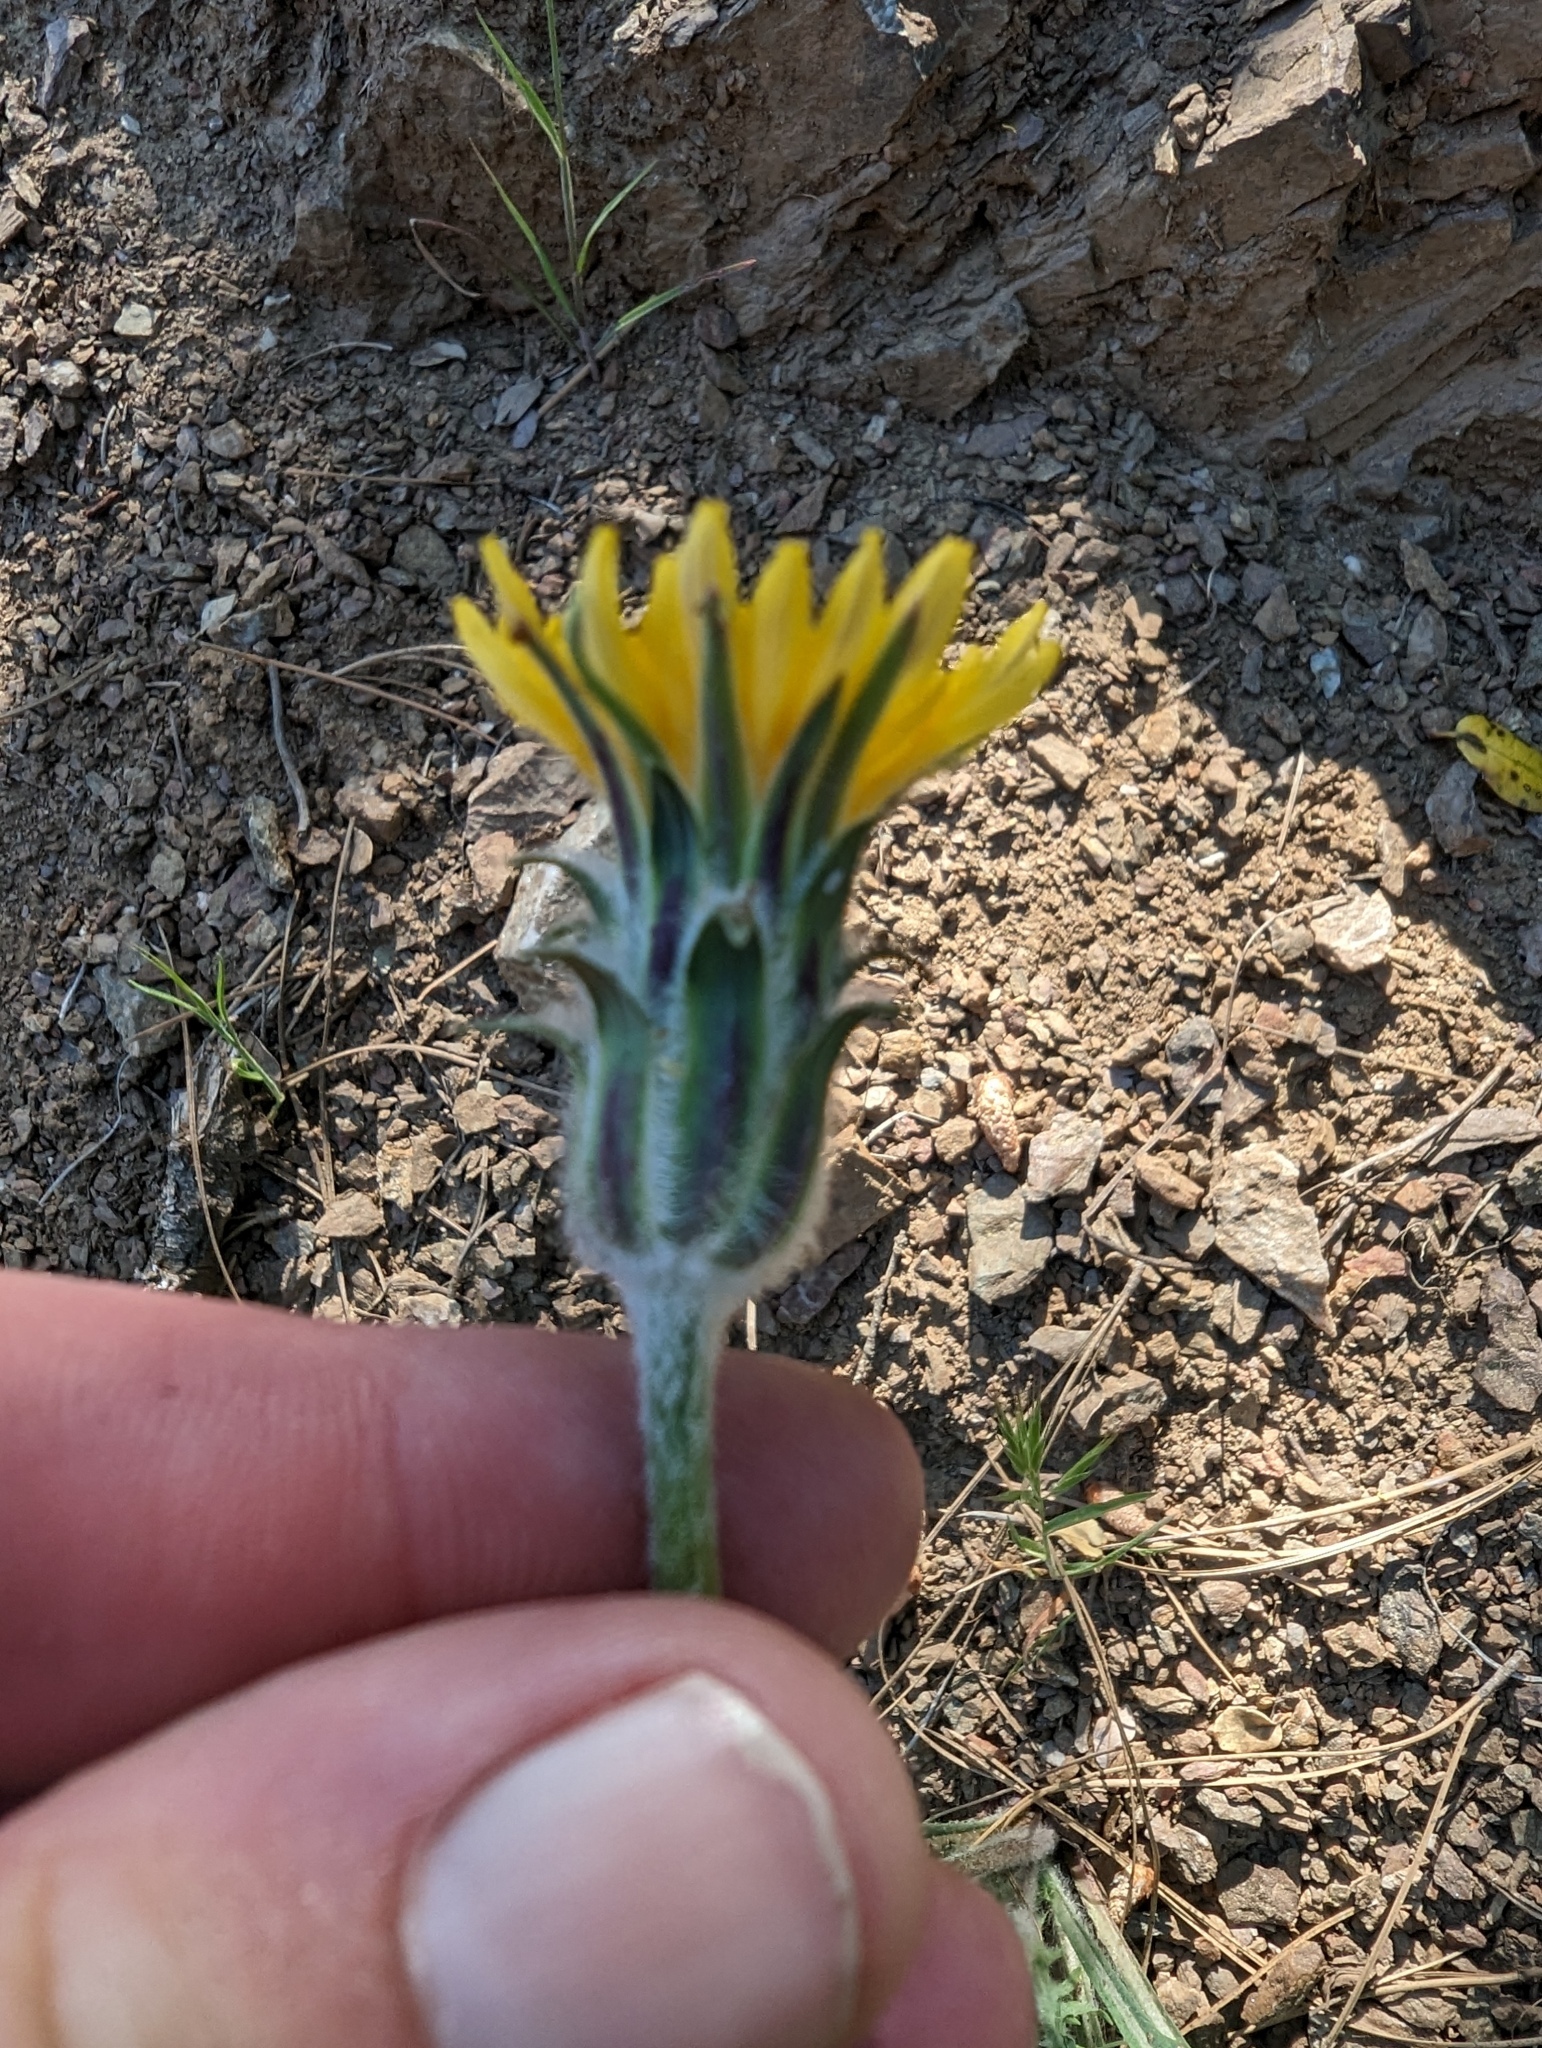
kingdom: Plantae
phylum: Tracheophyta
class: Magnoliopsida
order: Asterales
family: Asteraceae
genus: Agoseris
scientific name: Agoseris retrorsa
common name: Spearleaf agoseris
